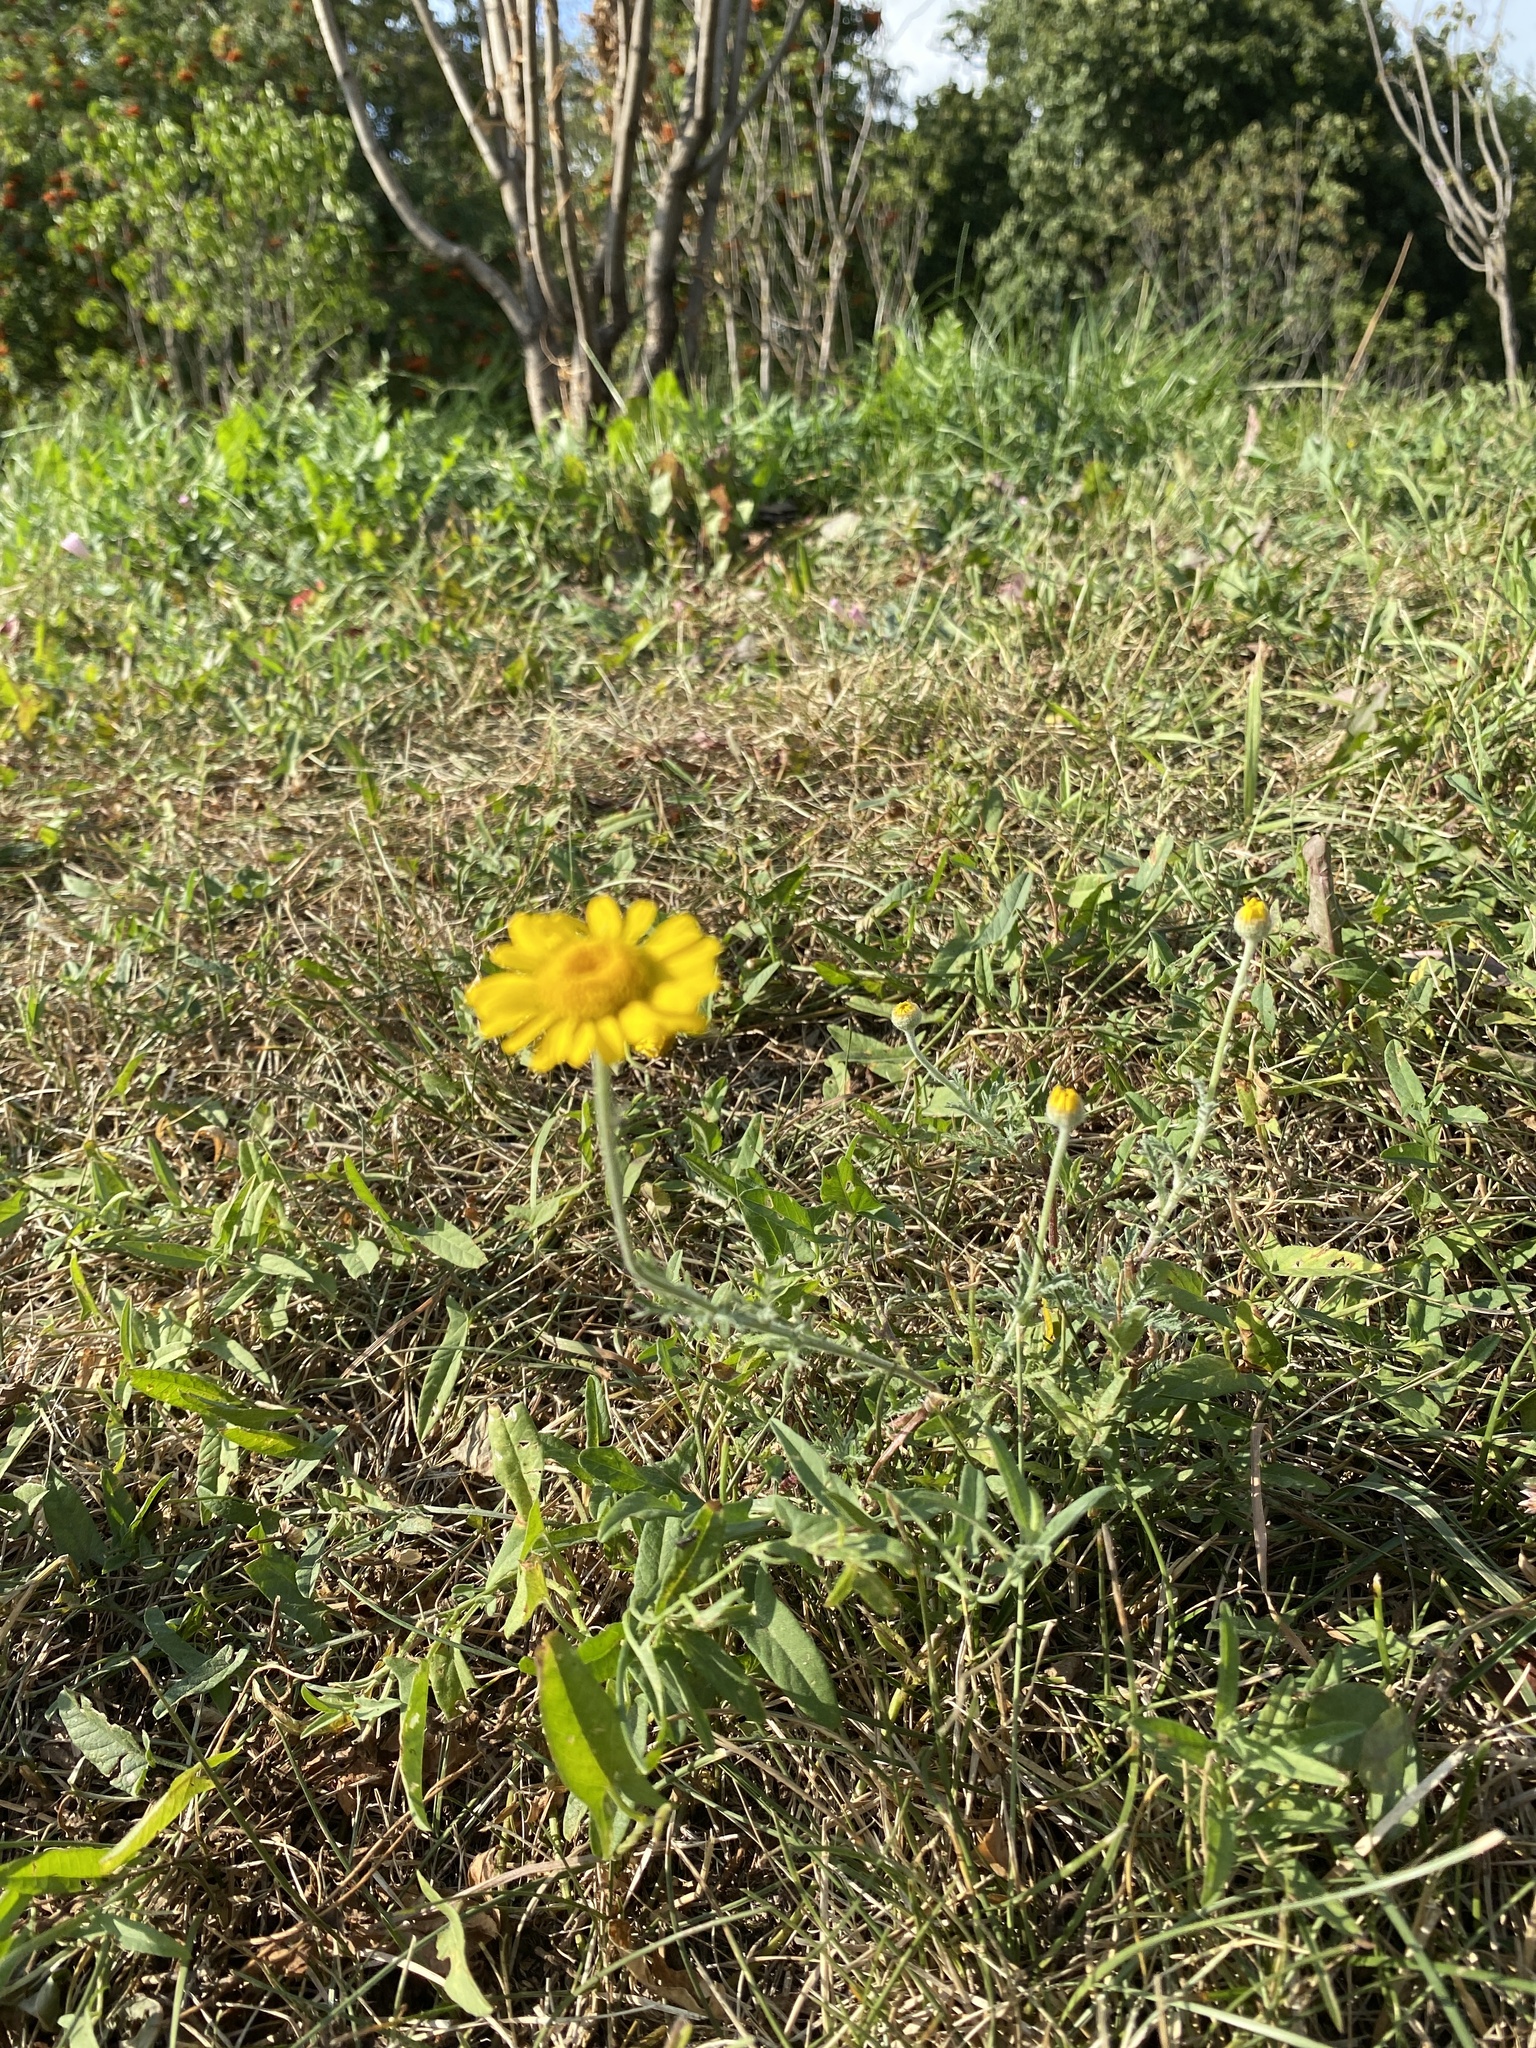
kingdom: Plantae
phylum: Tracheophyta
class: Magnoliopsida
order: Asterales
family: Asteraceae
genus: Cota
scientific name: Cota tinctoria
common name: Golden chamomile
